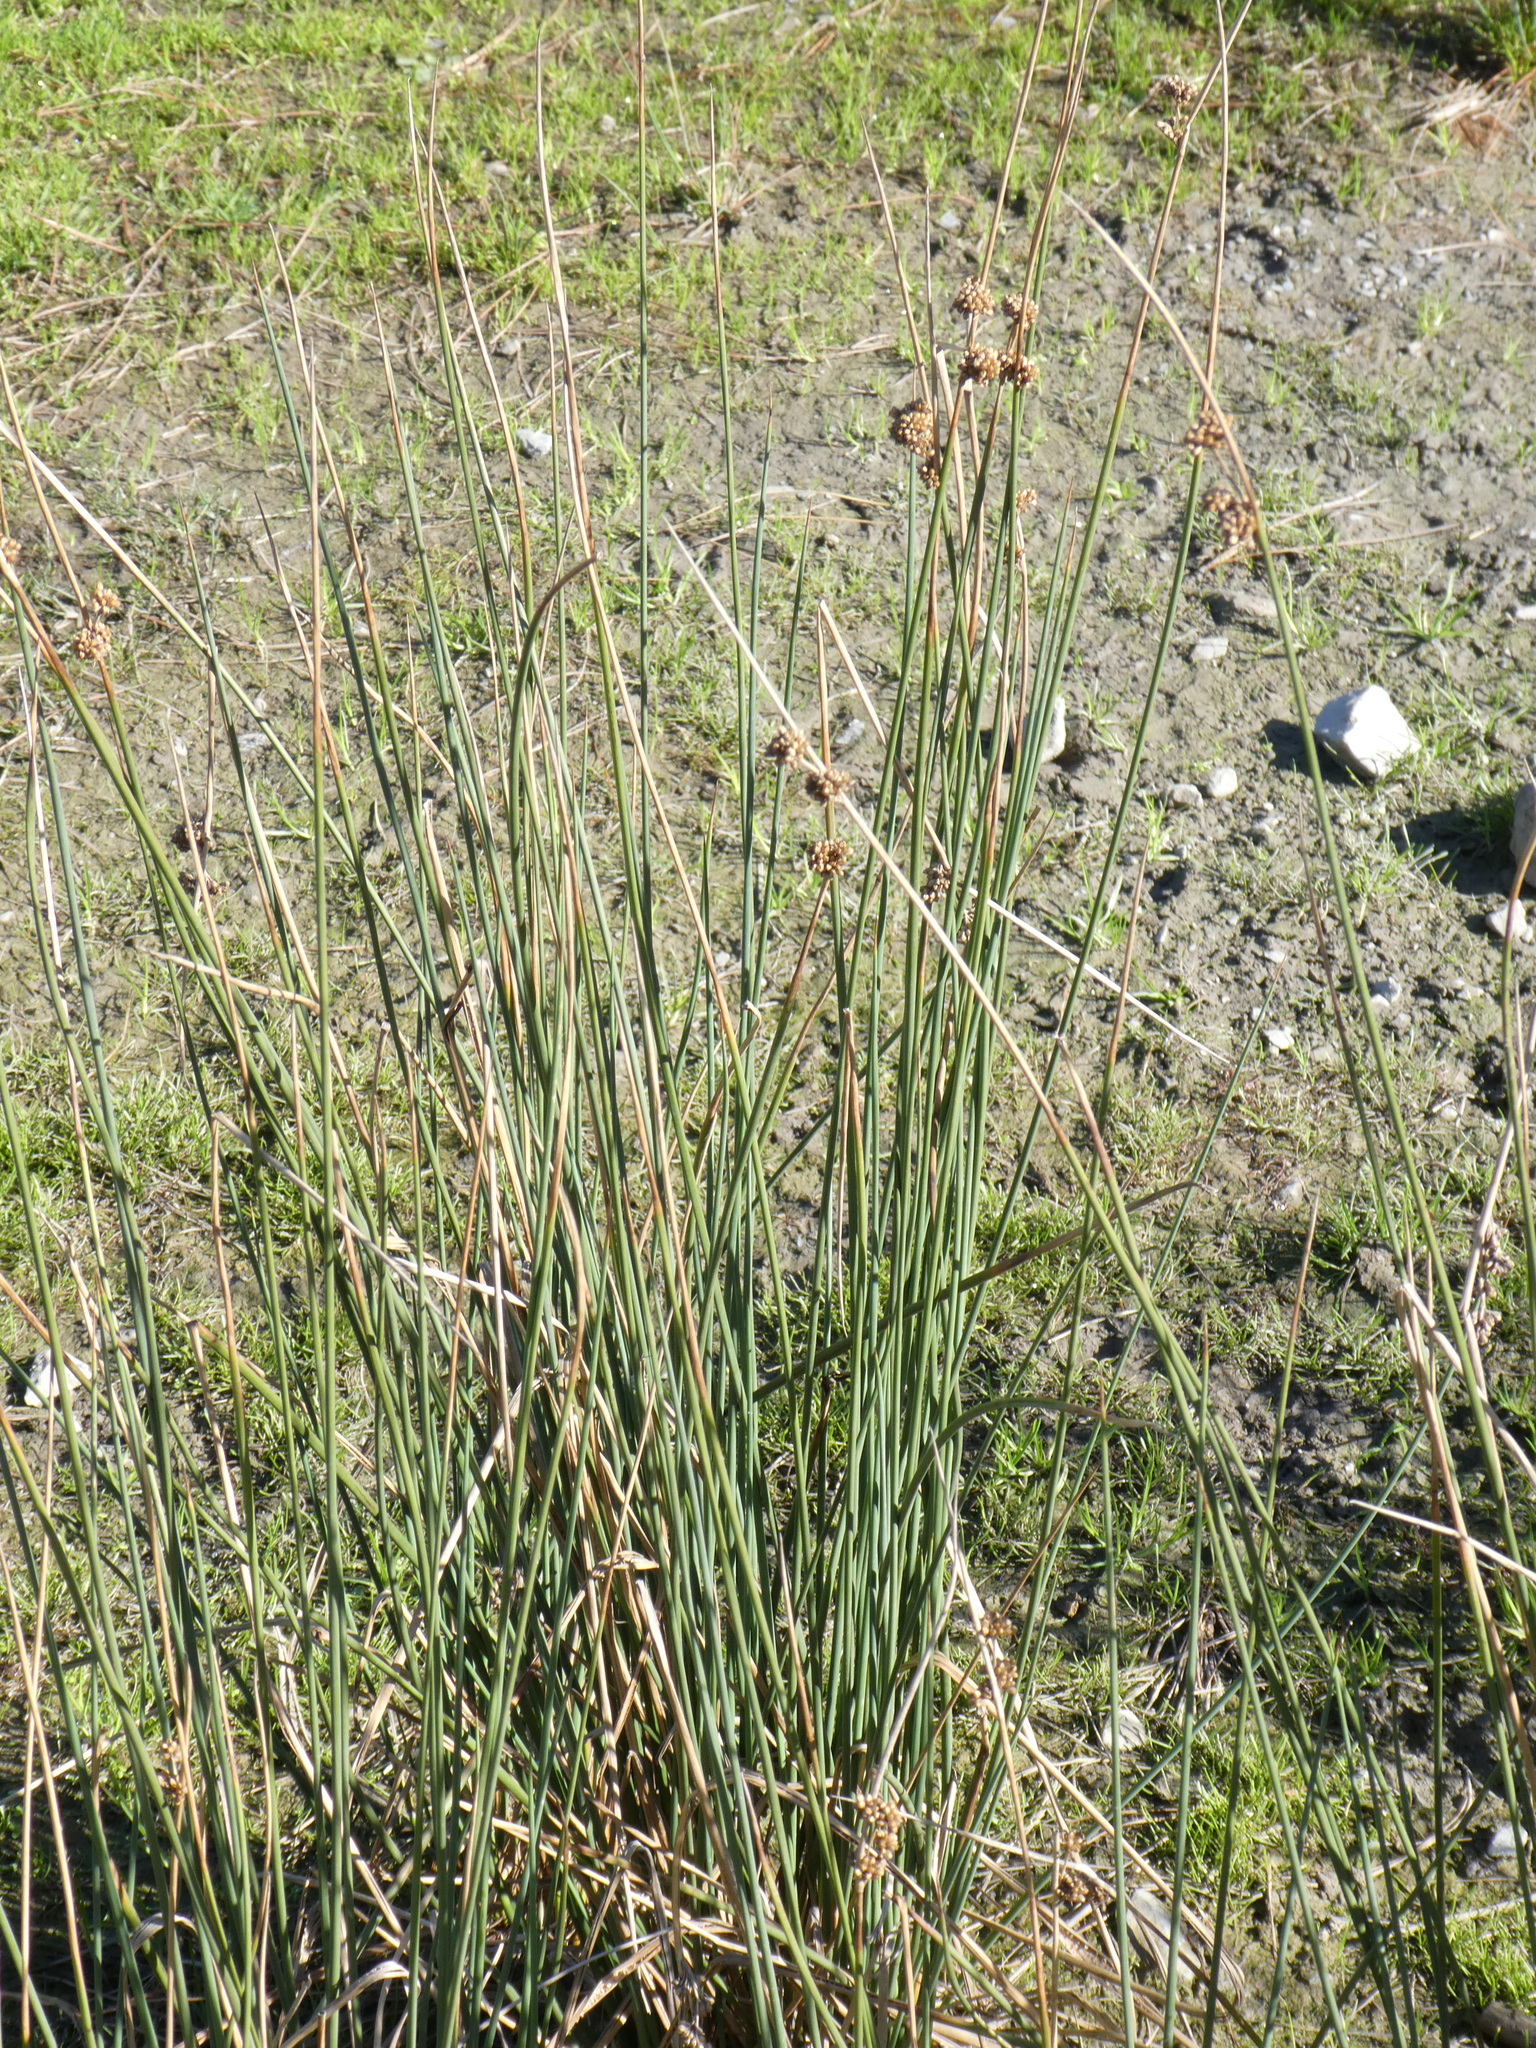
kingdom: Plantae
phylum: Tracheophyta
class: Liliopsida
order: Poales
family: Juncaceae
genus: Juncus
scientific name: Juncus australis
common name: Austral rush
